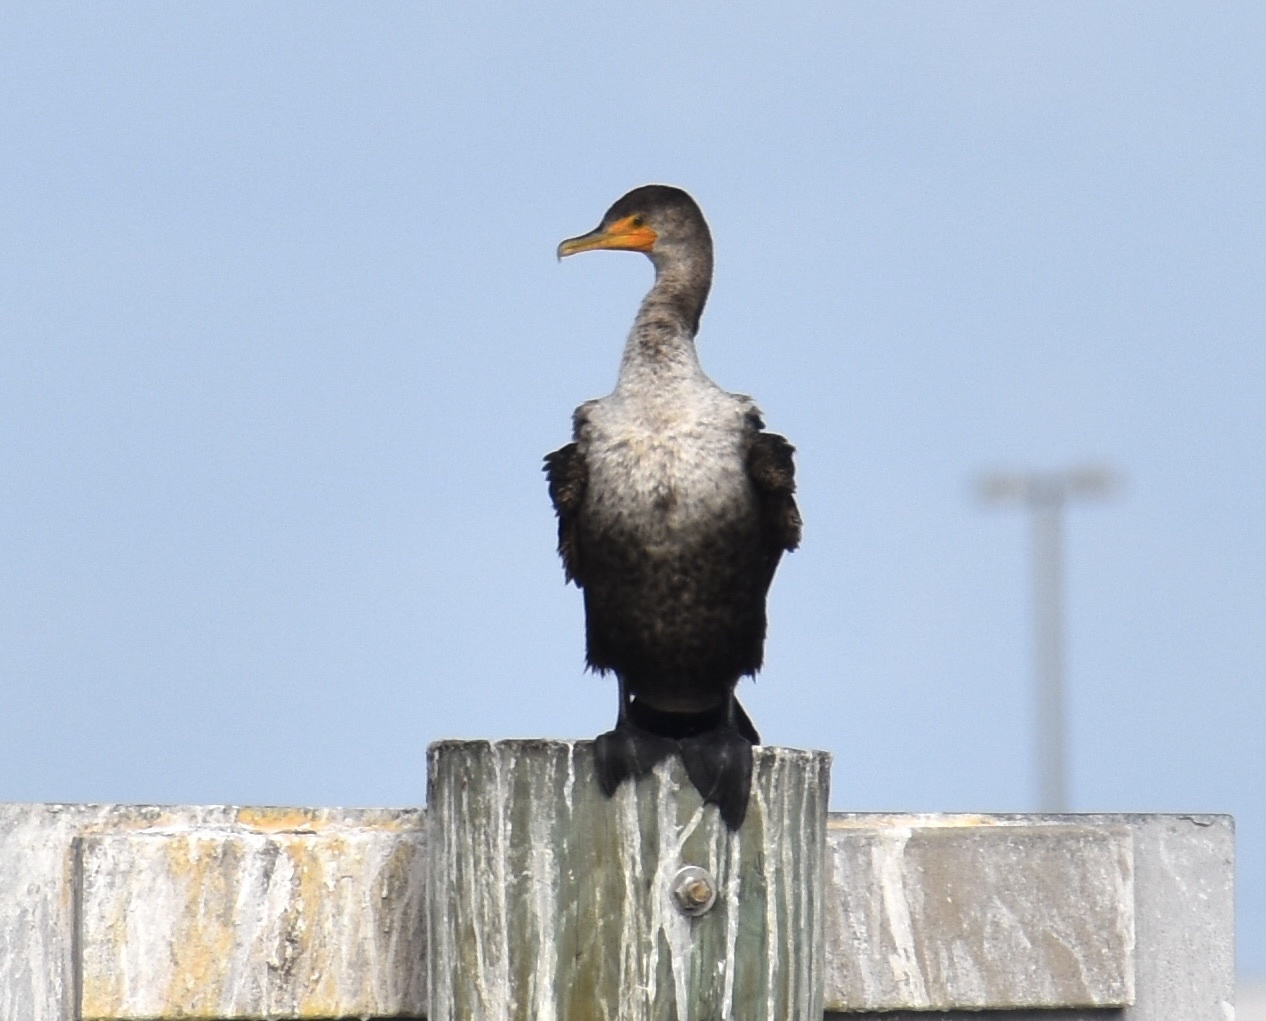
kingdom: Animalia
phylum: Chordata
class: Aves
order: Suliformes
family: Phalacrocoracidae
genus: Phalacrocorax
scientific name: Phalacrocorax auritus
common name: Double-crested cormorant
